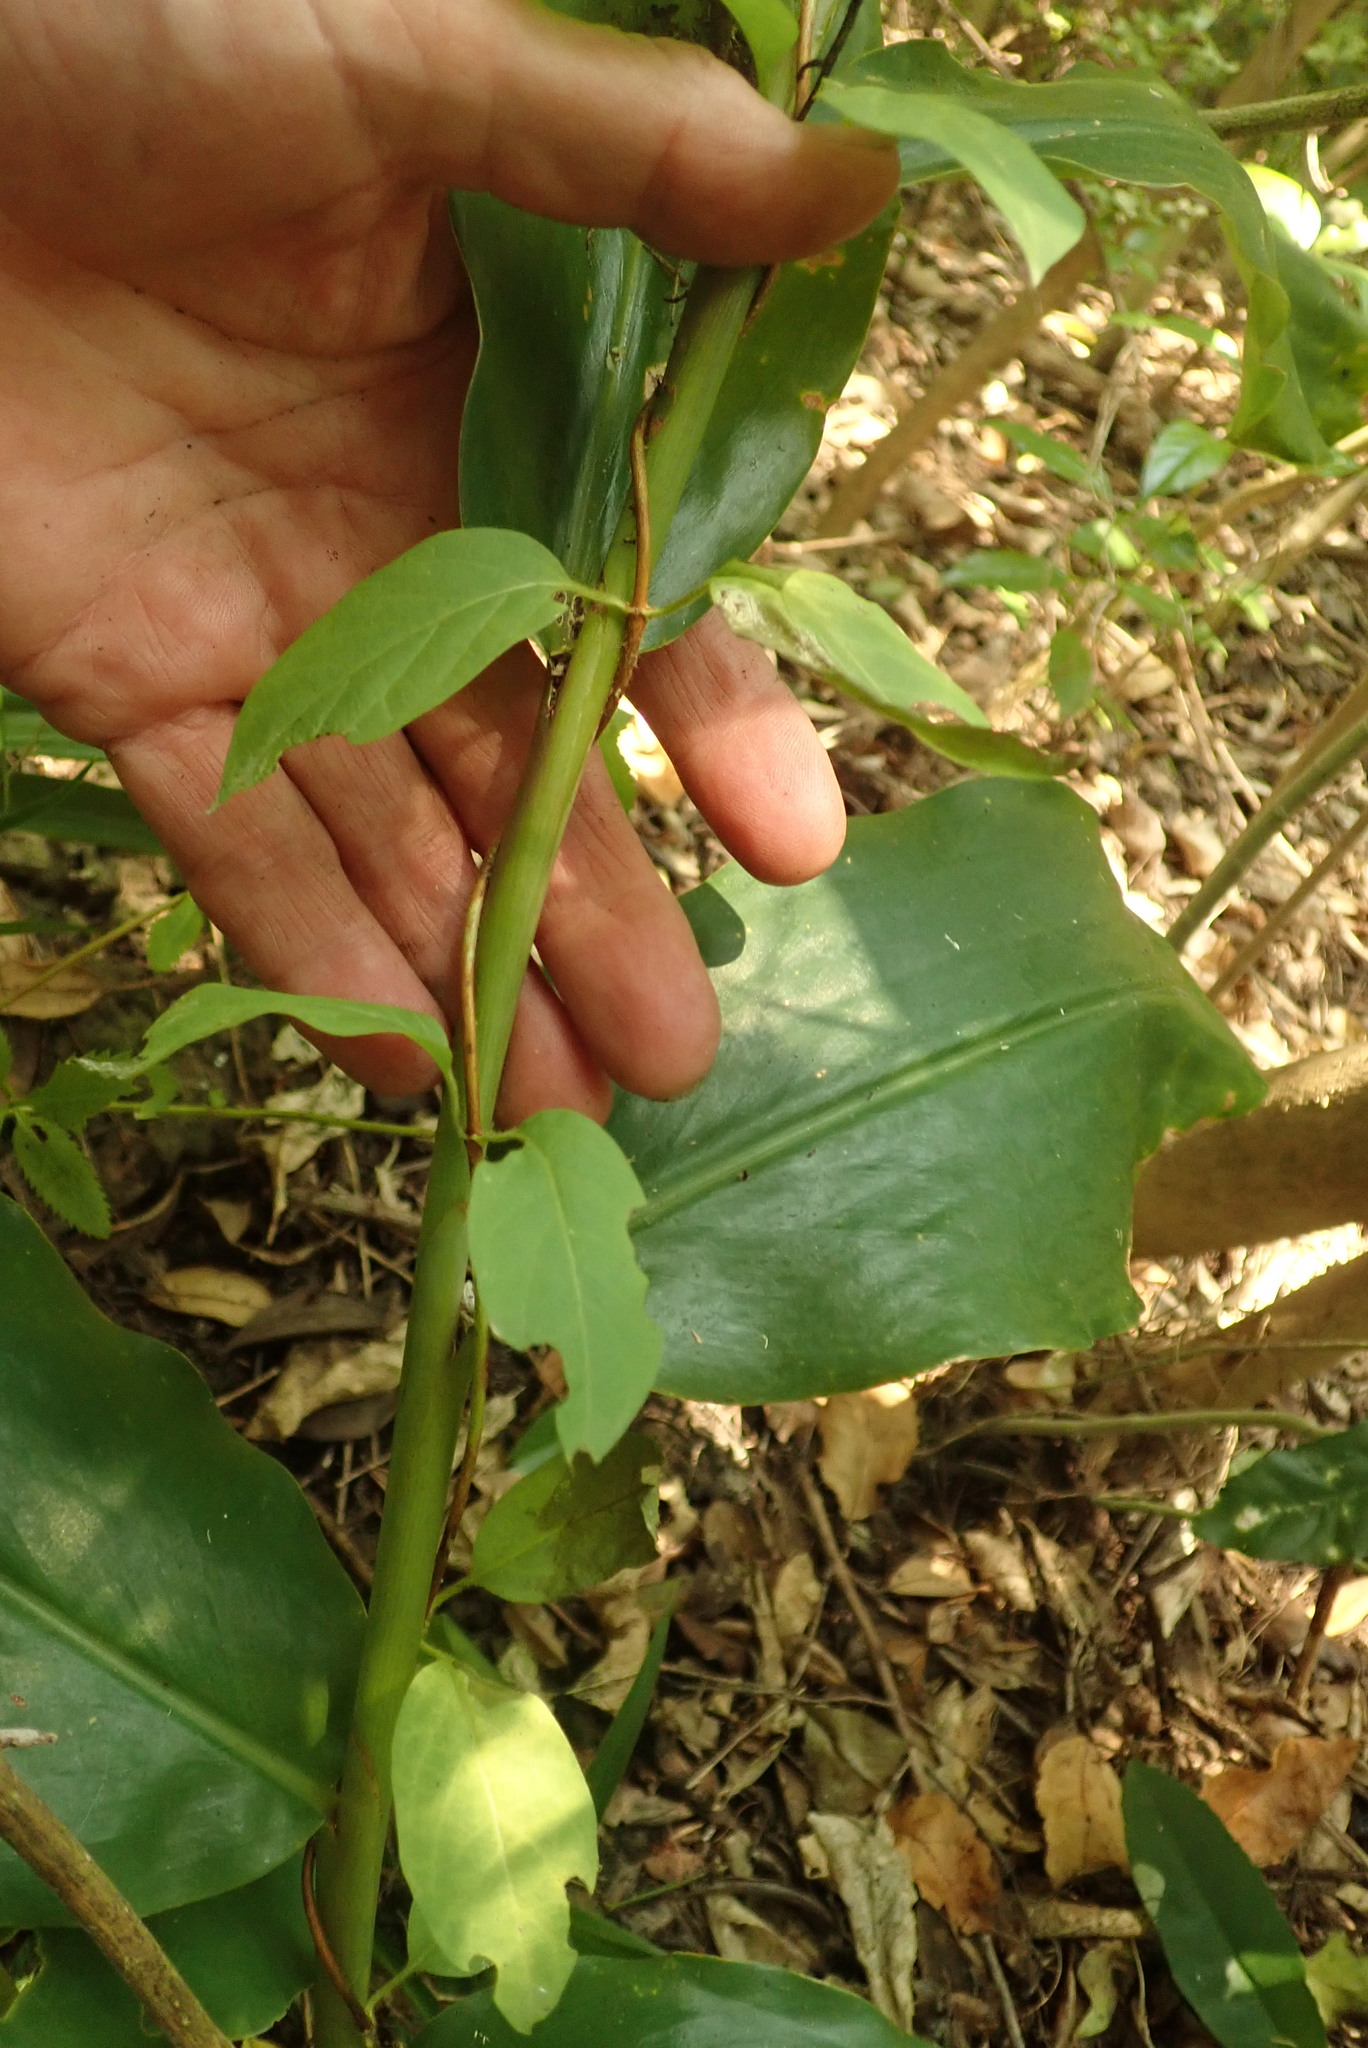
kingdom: Plantae
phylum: Tracheophyta
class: Liliopsida
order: Zingiberales
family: Zingiberaceae
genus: Hedychium
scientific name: Hedychium gardnerianum
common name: Himalayan ginger
